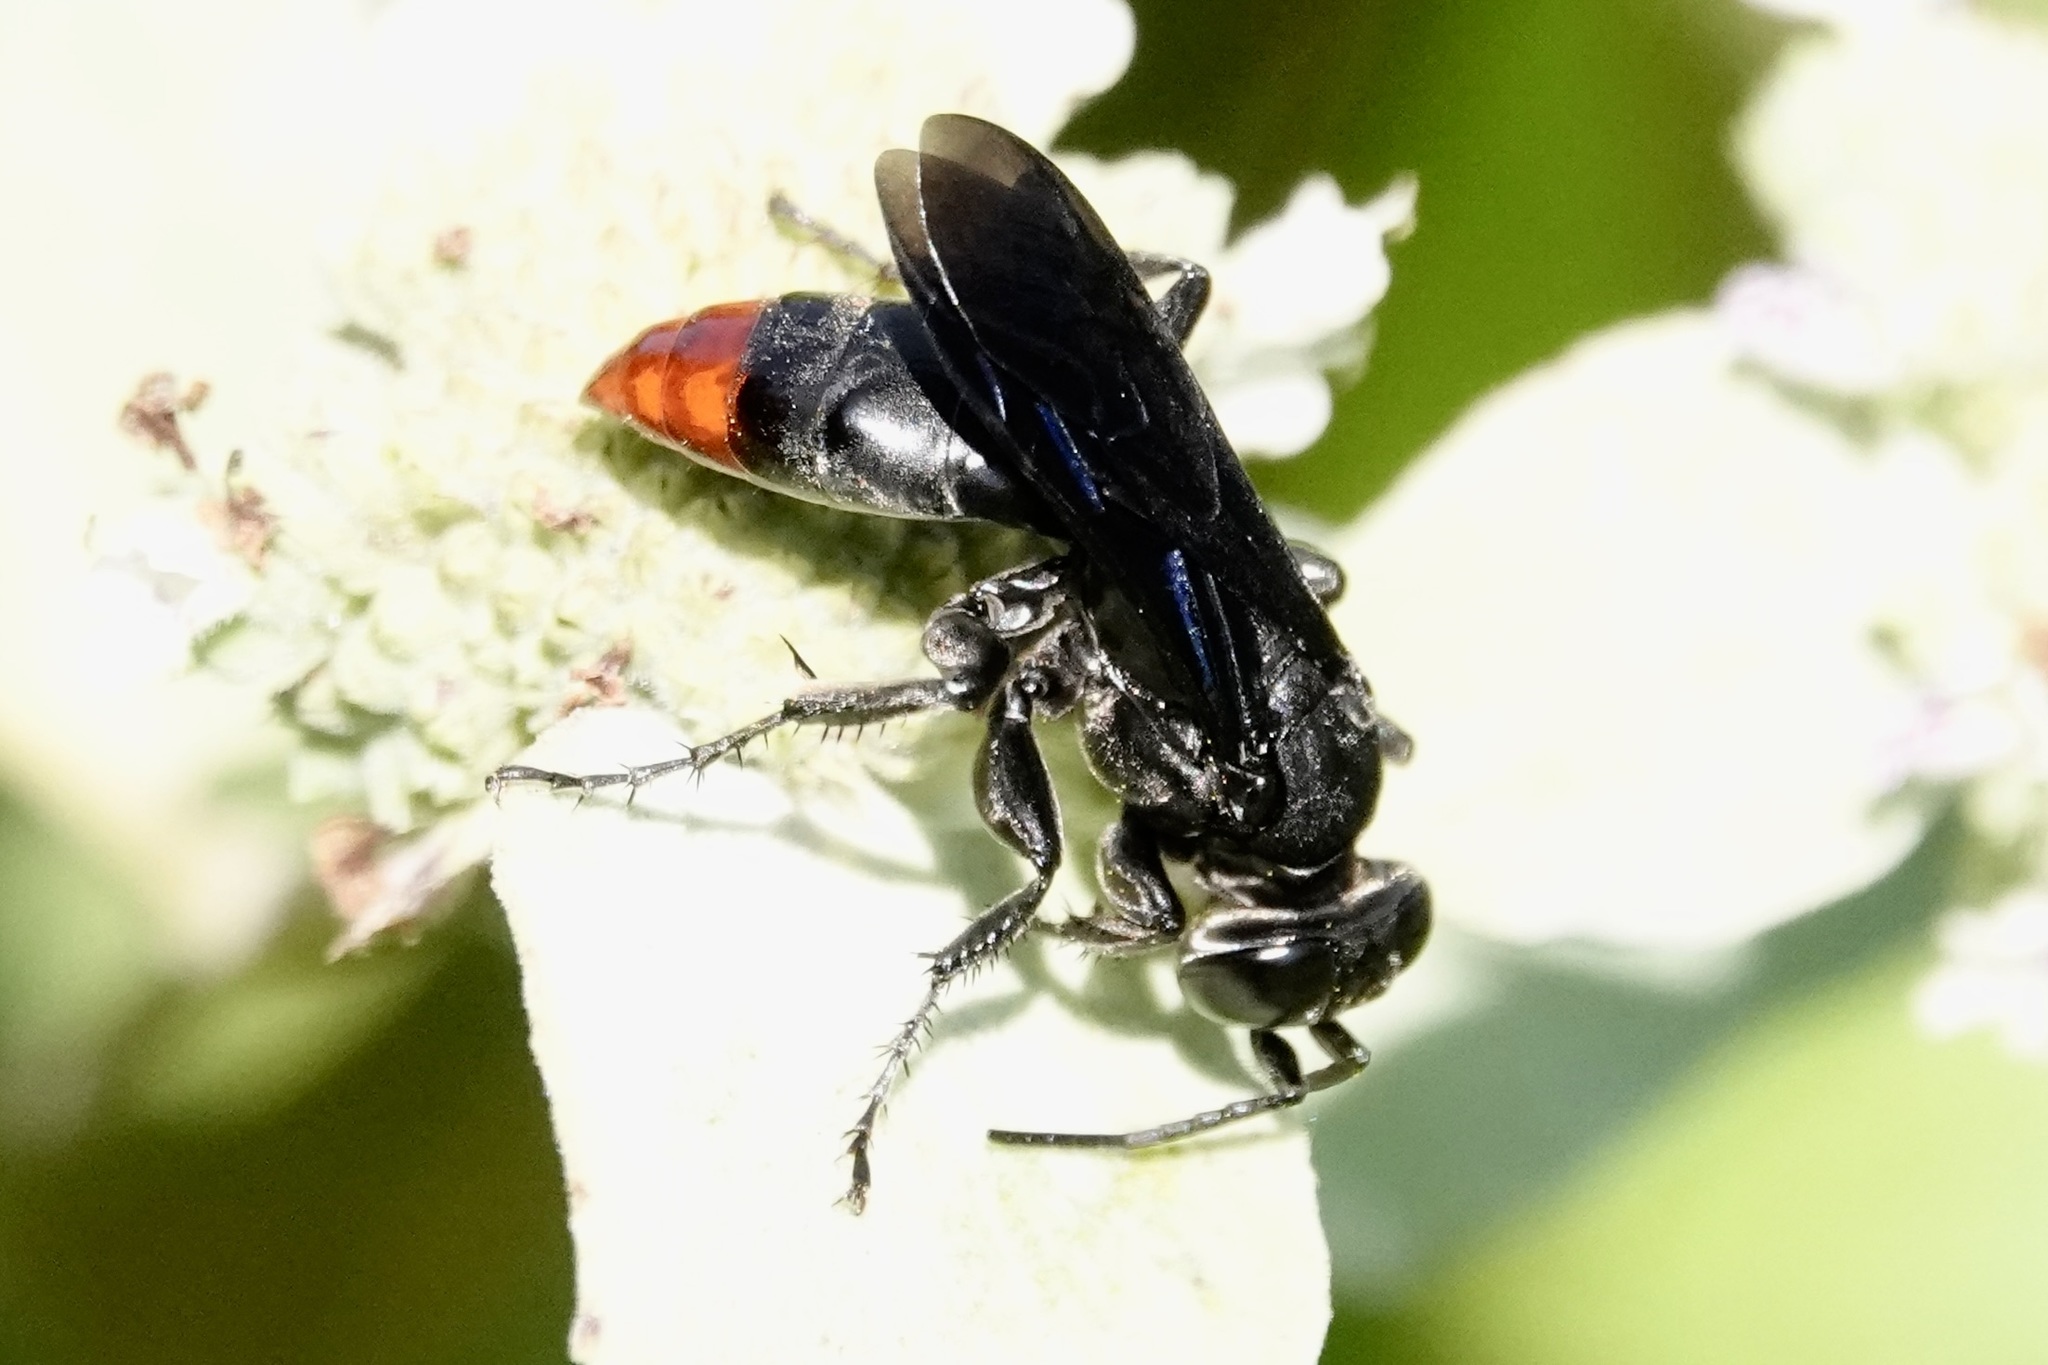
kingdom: Animalia
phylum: Arthropoda
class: Insecta
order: Hymenoptera
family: Crabronidae
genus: Larra
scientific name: Larra analis
